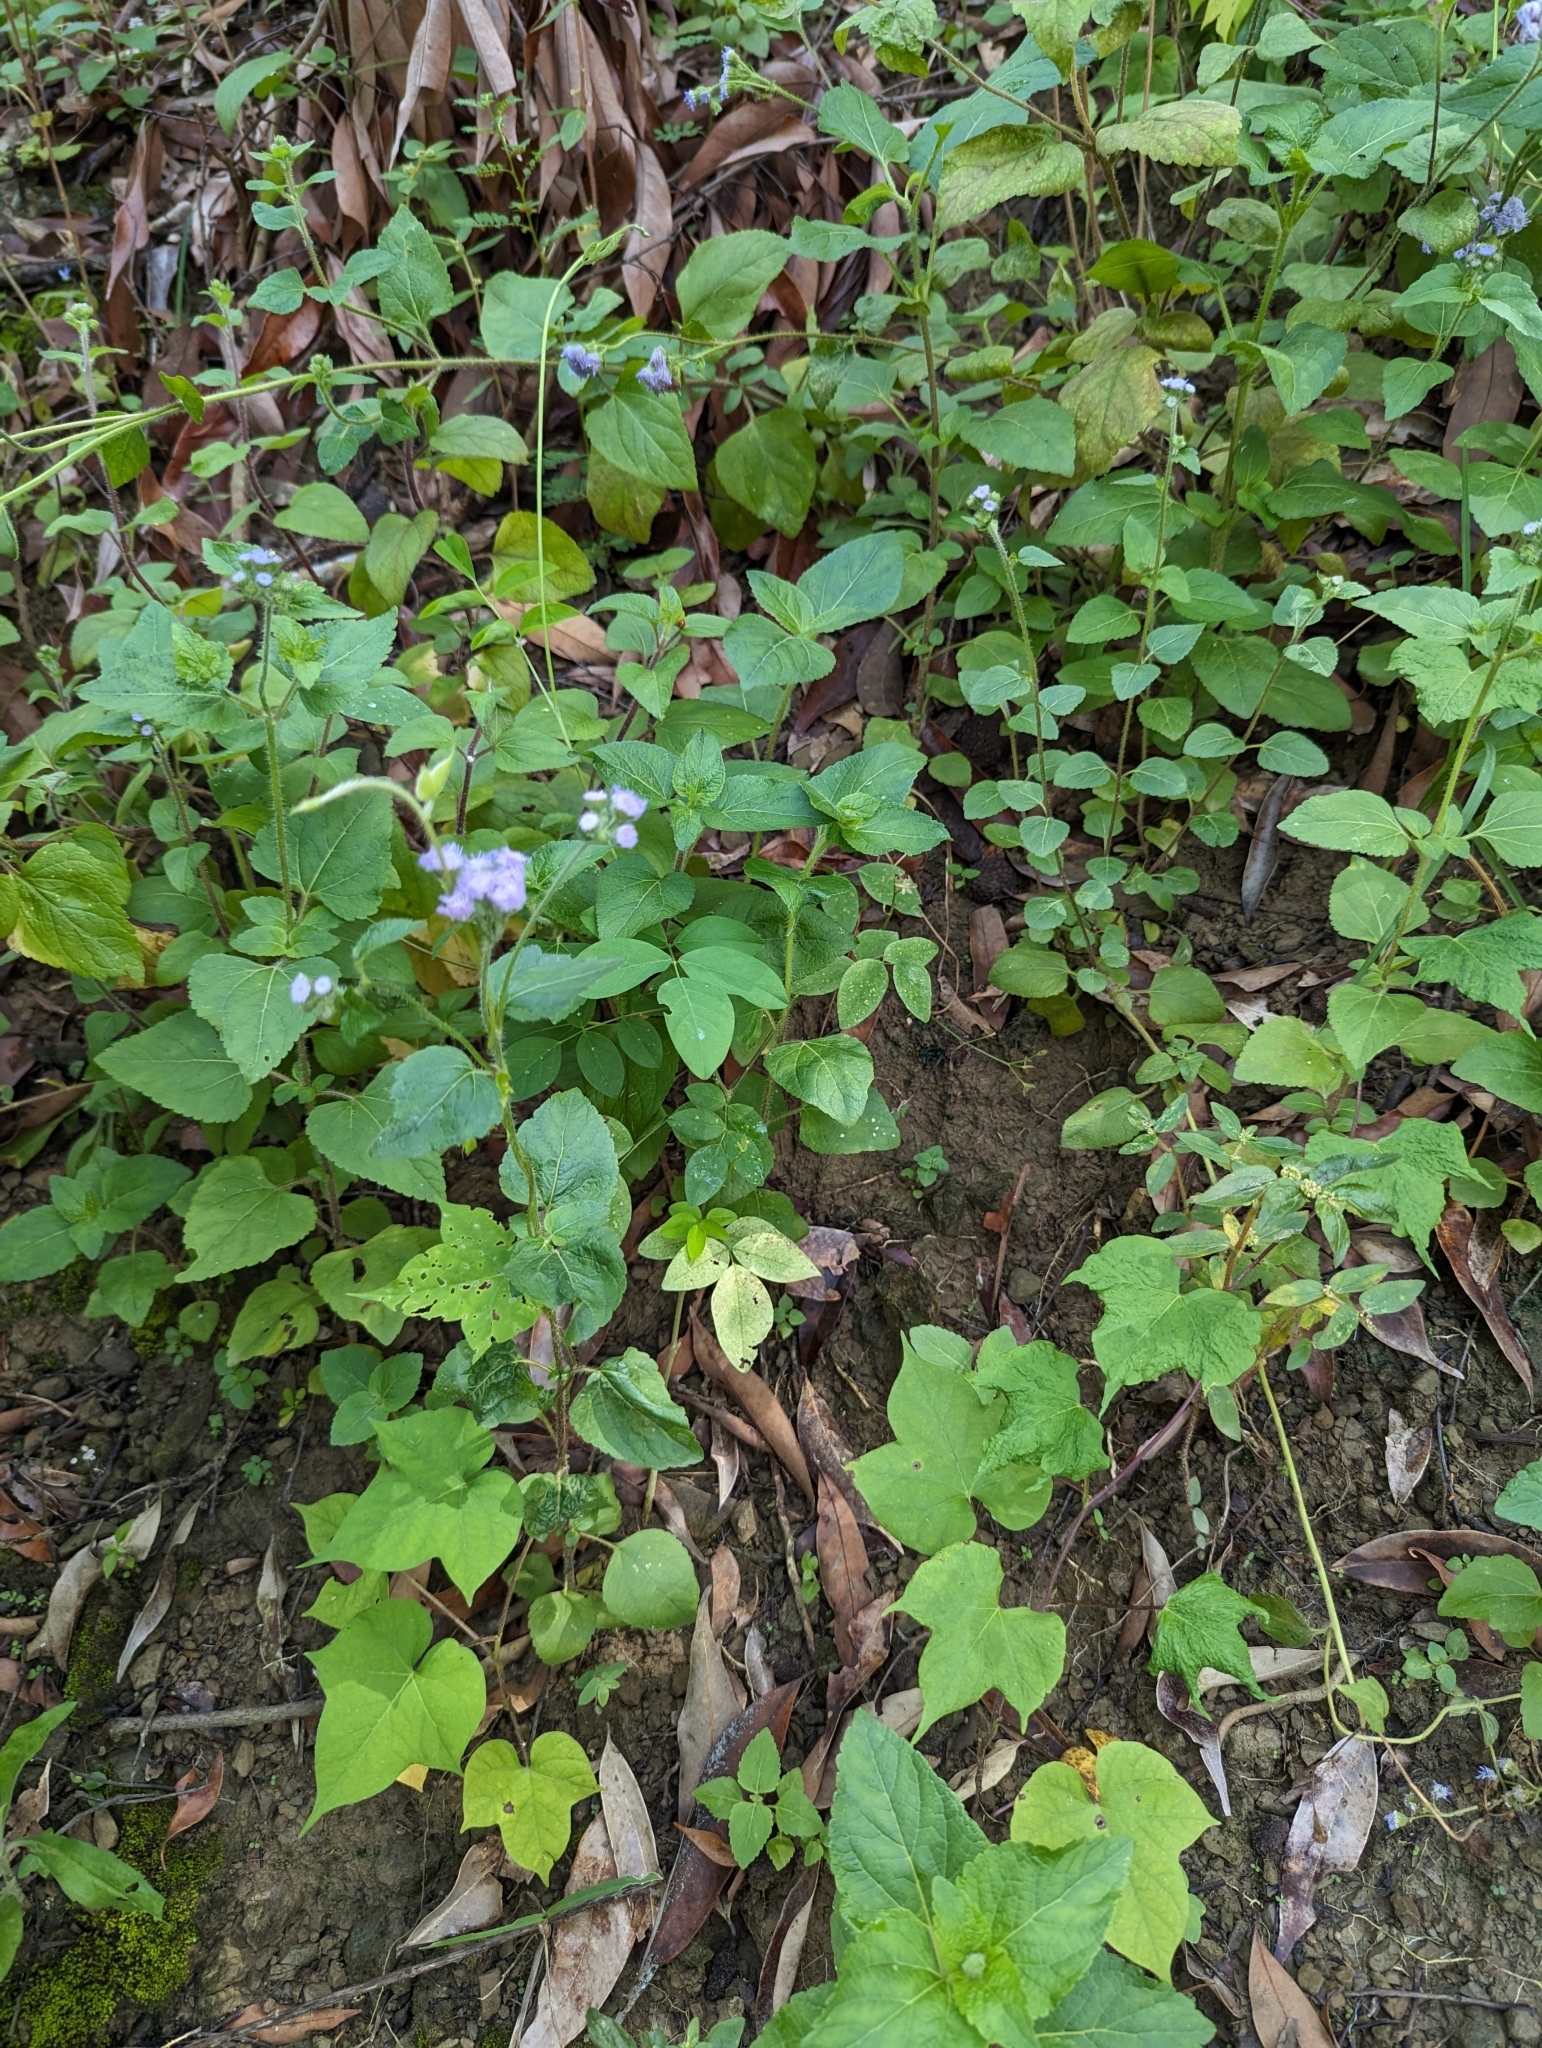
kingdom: Plantae
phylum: Tracheophyta
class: Magnoliopsida
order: Asterales
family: Asteraceae
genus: Ageratum
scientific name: Ageratum houstonianum
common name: Bluemink
